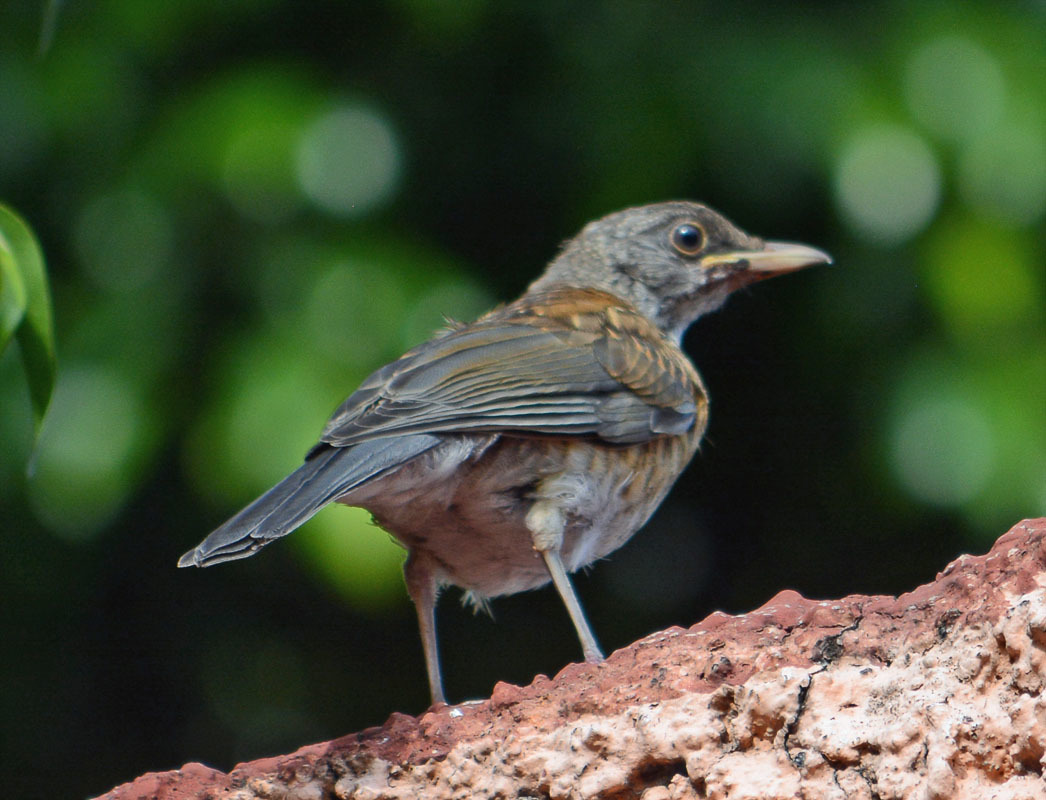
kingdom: Animalia
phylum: Chordata
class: Aves
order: Passeriformes
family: Turdidae
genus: Turdus
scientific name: Turdus rufopalliatus
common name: Rufous-backed robin
